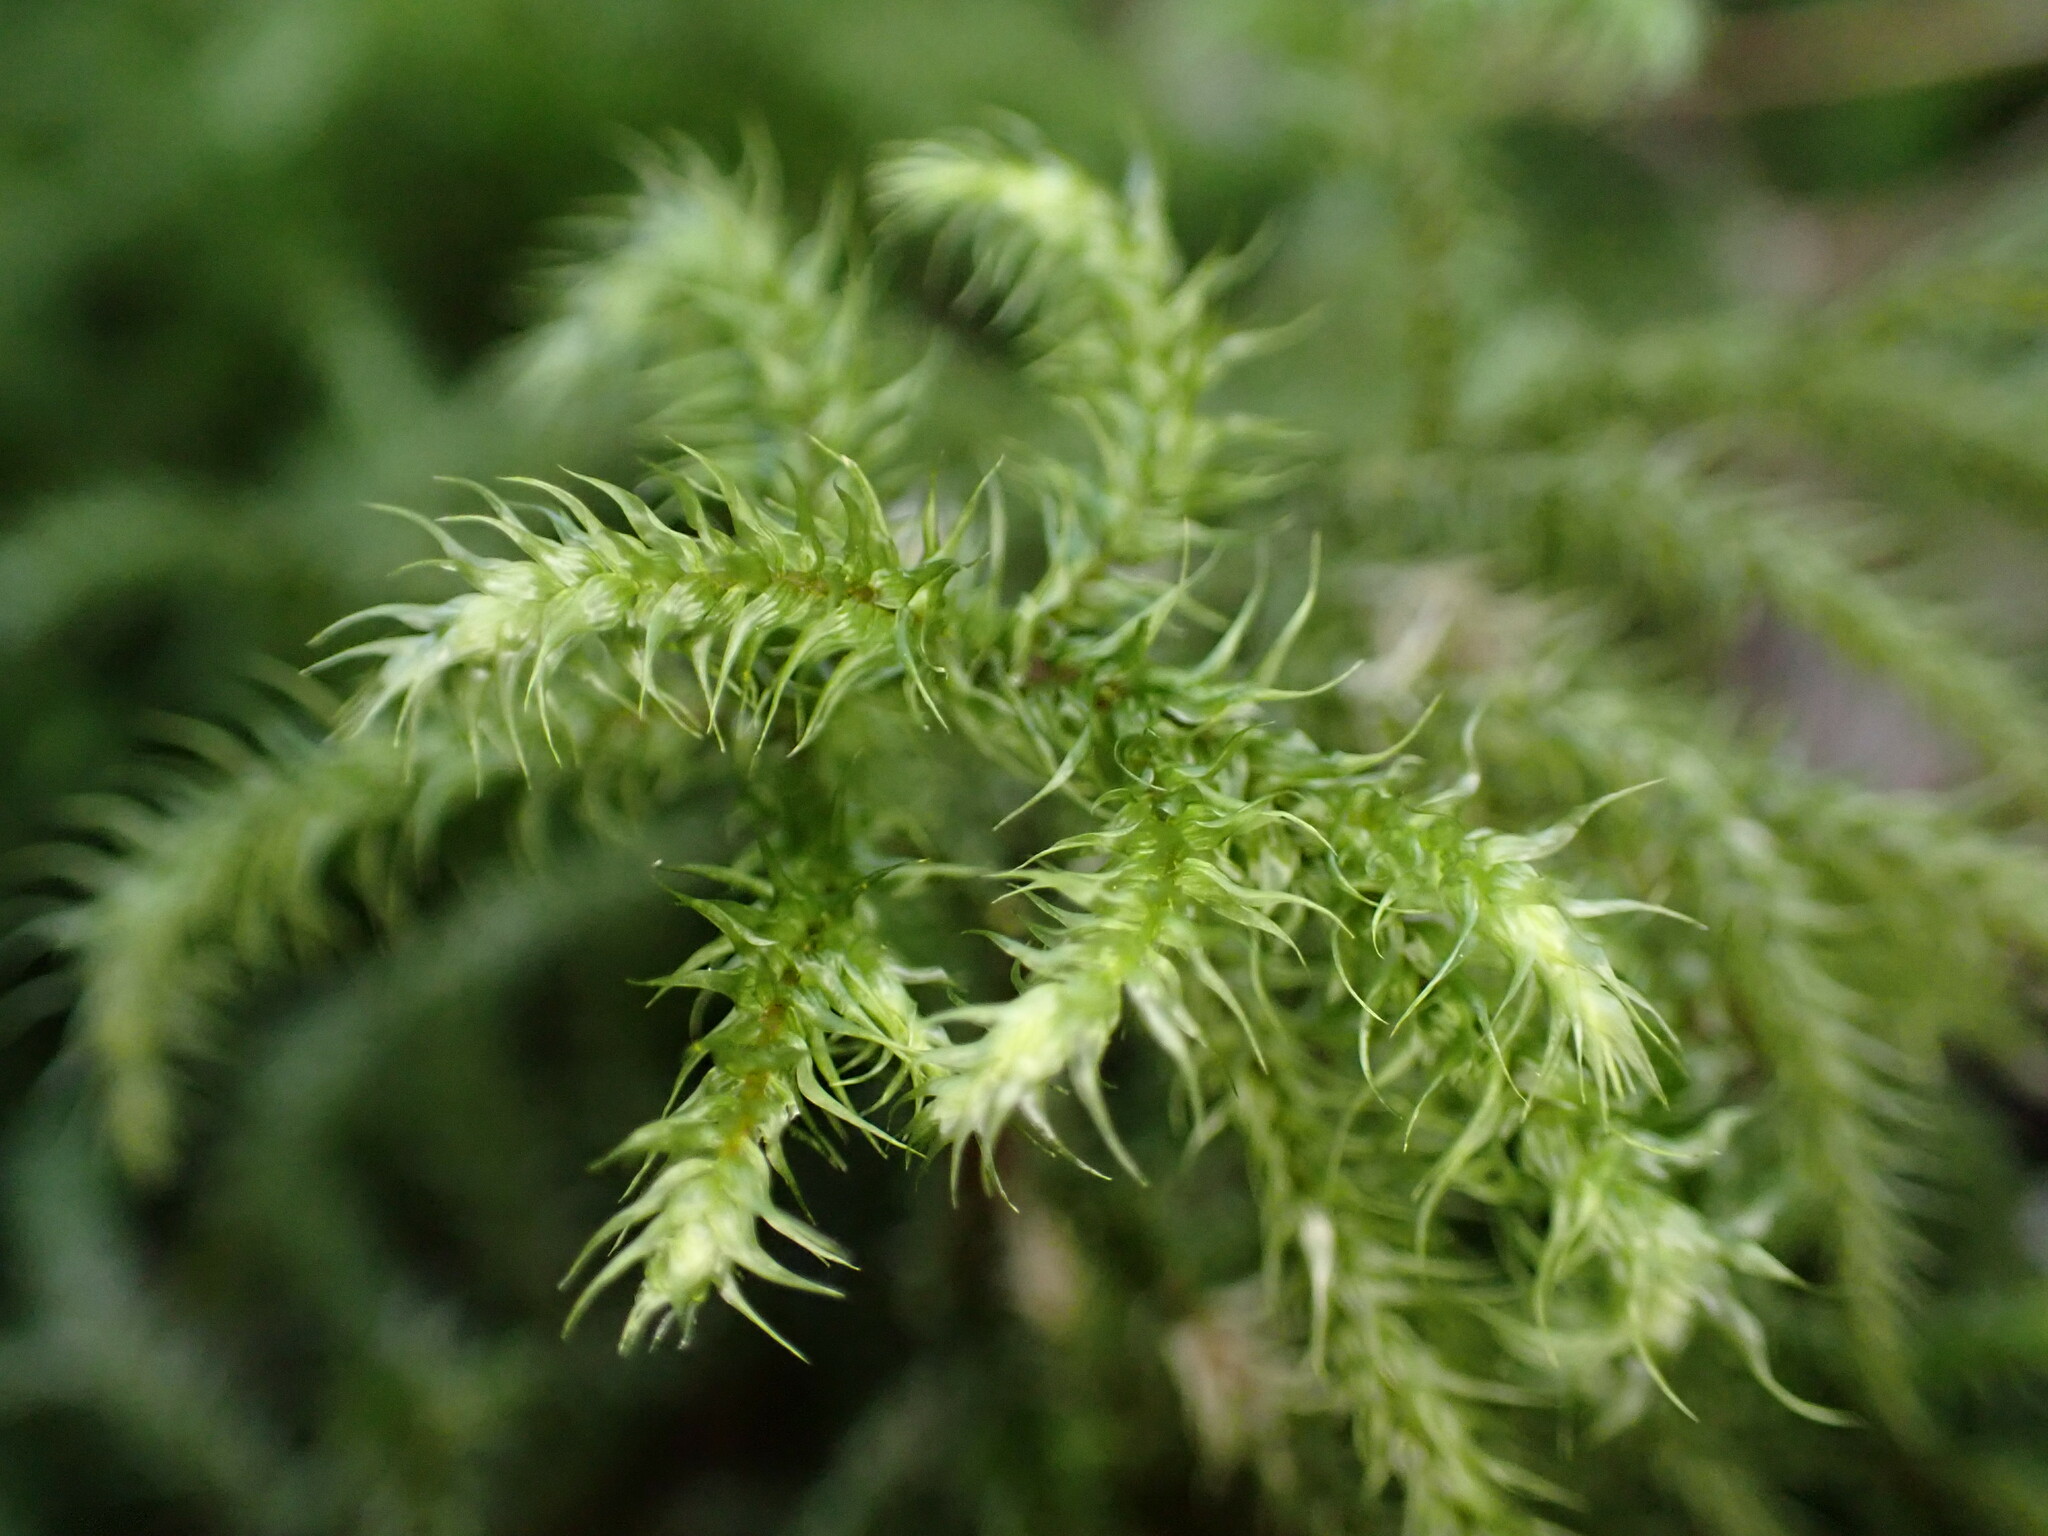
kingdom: Plantae
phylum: Bryophyta
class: Bryopsida
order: Hypnales
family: Hylocomiaceae
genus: Rhytidiadelphus
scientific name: Rhytidiadelphus loreus
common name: Lanky moss
